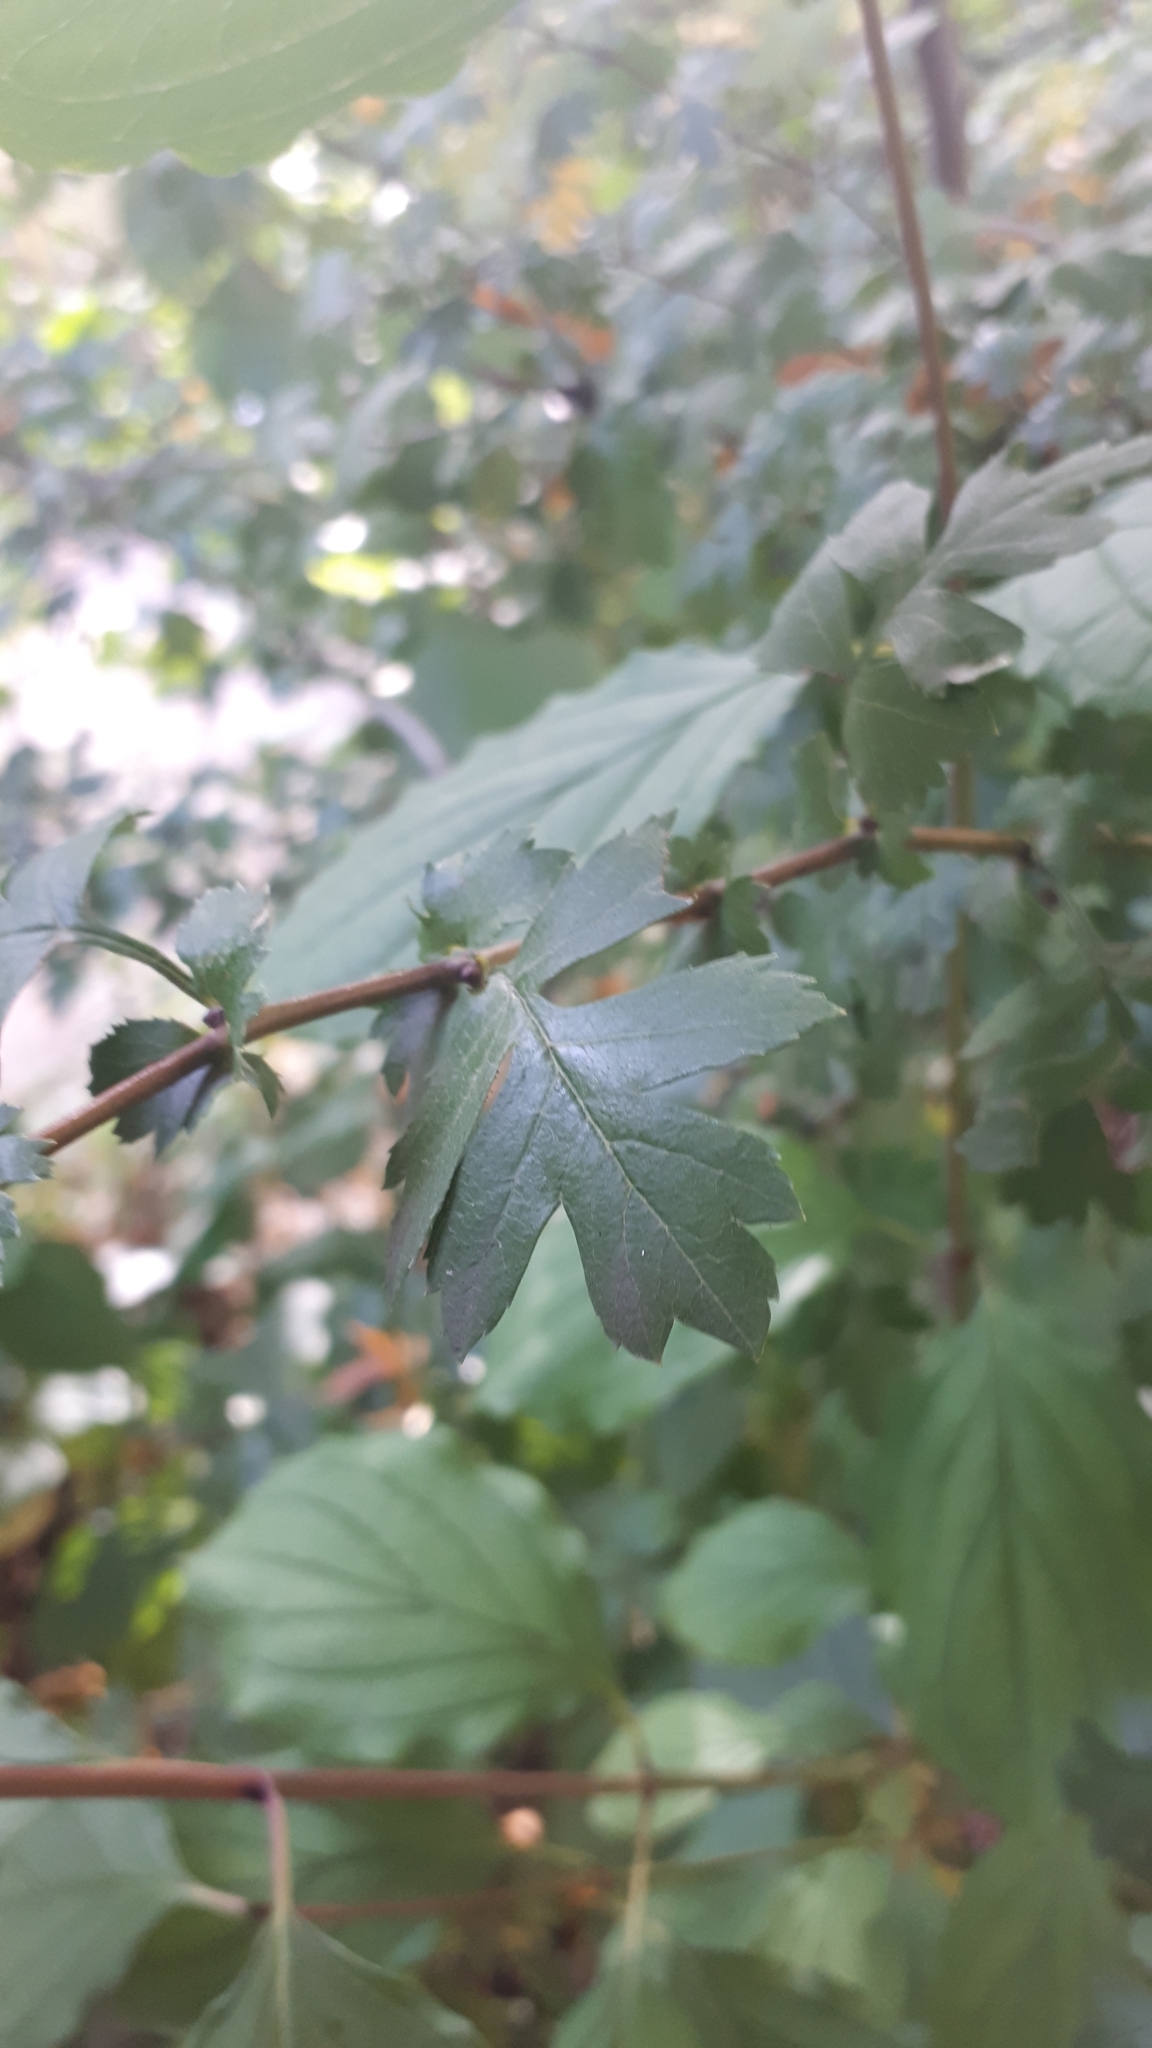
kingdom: Plantae
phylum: Tracheophyta
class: Magnoliopsida
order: Rosales
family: Rosaceae
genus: Crataegus
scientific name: Crataegus monogyna
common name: Hawthorn
